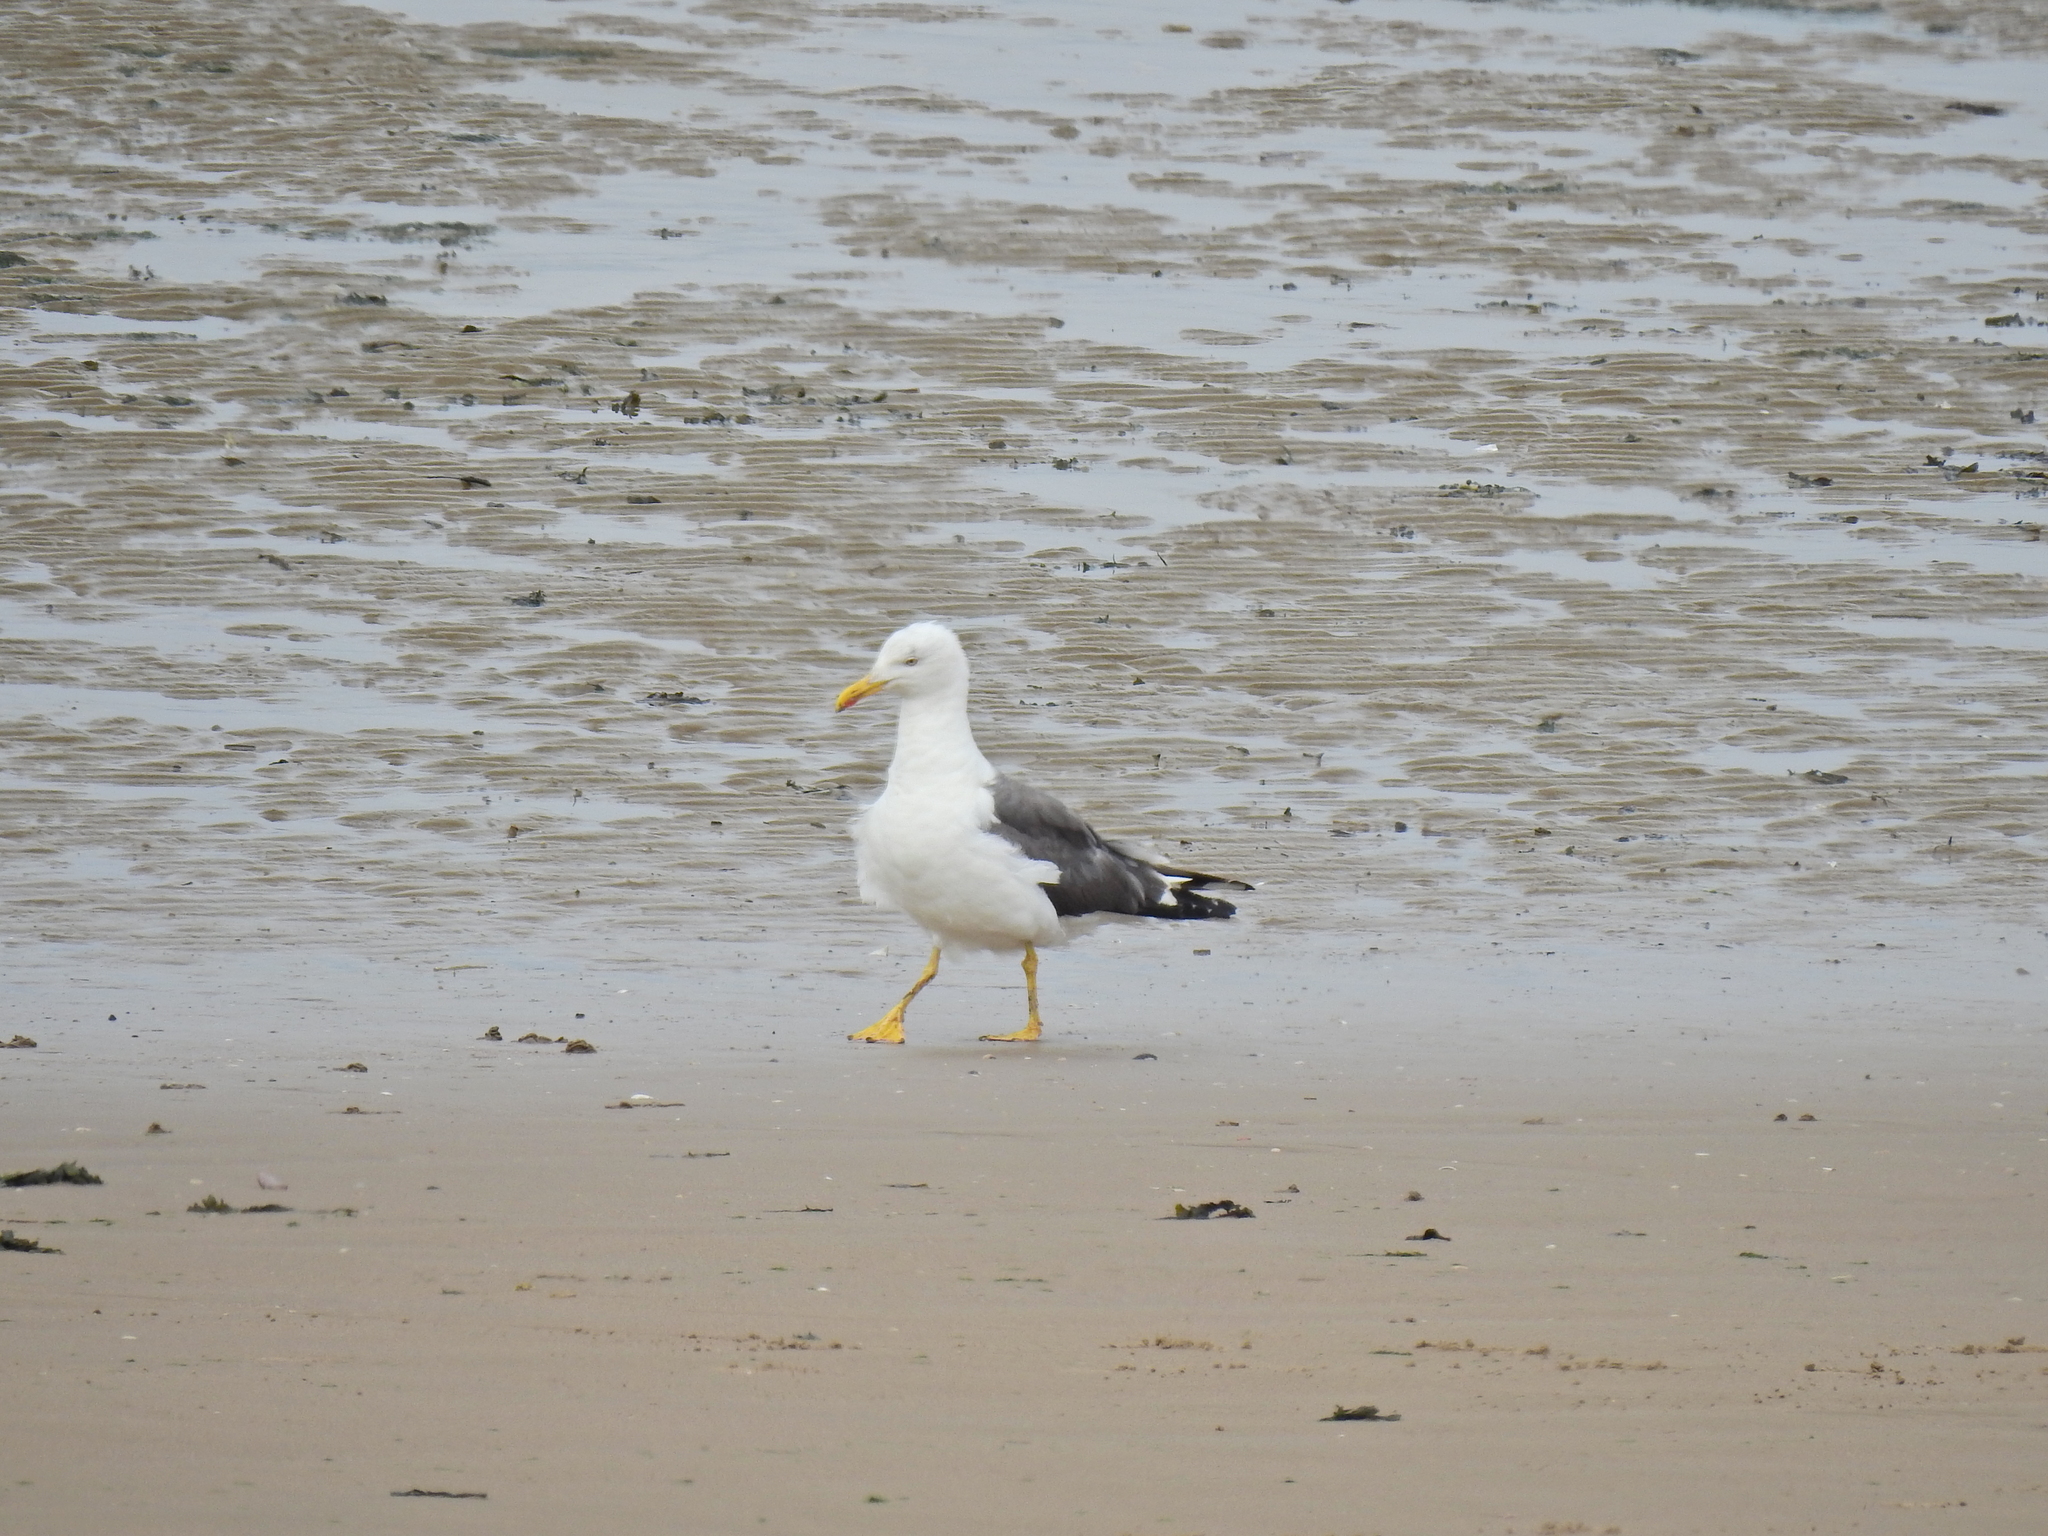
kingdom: Animalia
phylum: Chordata
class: Aves
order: Charadriiformes
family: Laridae
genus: Larus
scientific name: Larus fuscus
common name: Lesser black-backed gull
